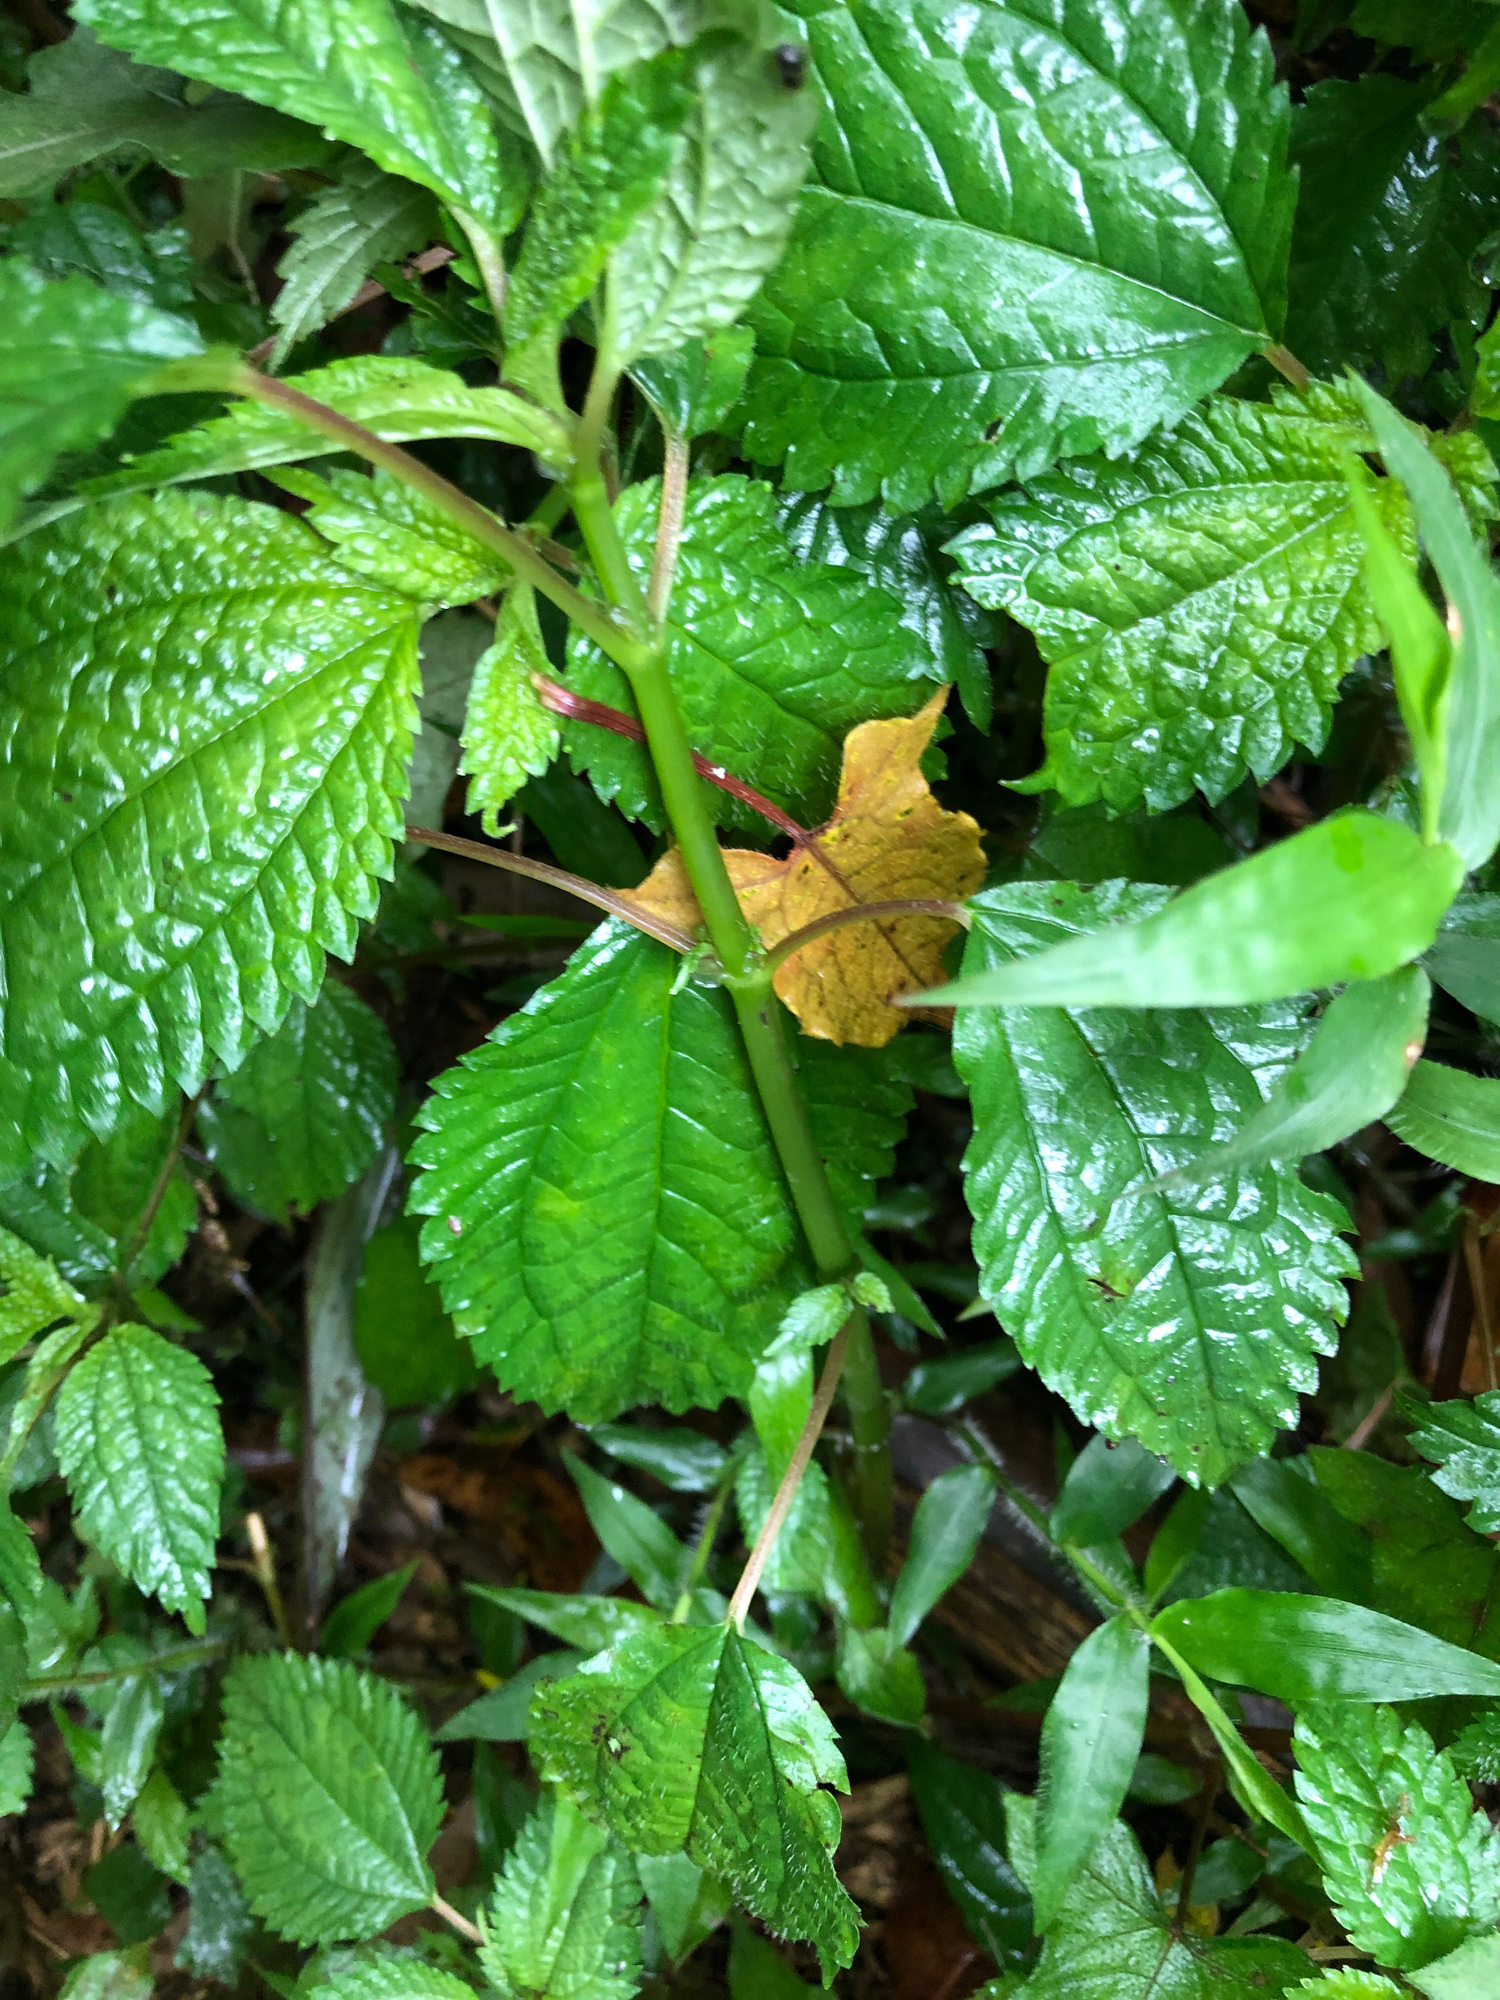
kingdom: Plantae
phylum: Tracheophyta
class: Magnoliopsida
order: Rosales
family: Urticaceae
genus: Lecanthus
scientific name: Lecanthus peduncularis
